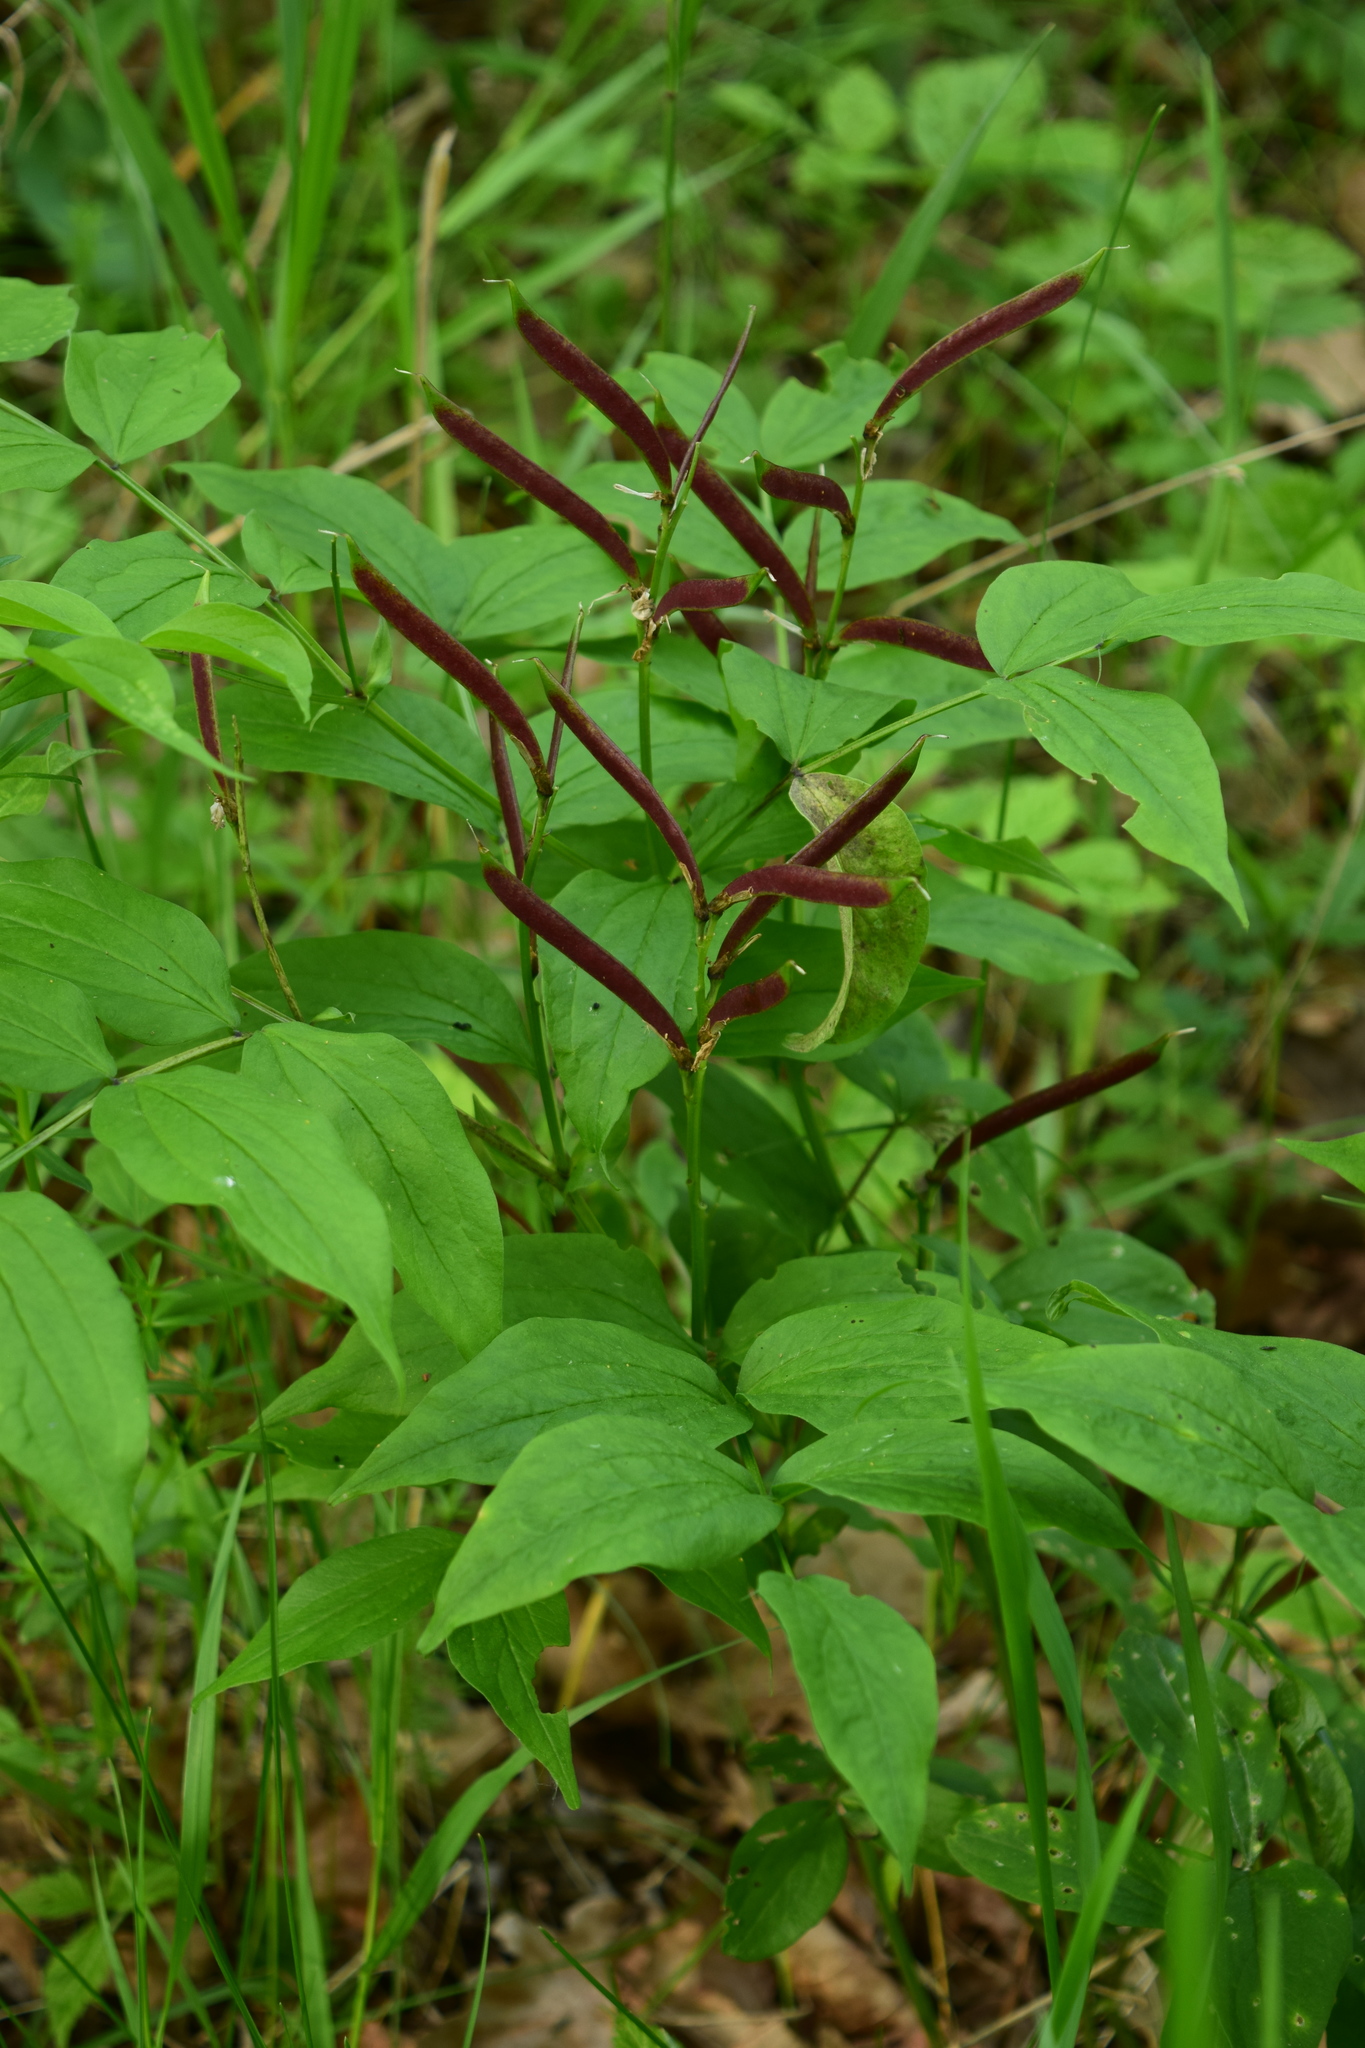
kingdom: Plantae
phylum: Tracheophyta
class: Magnoliopsida
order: Fabales
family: Fabaceae
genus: Lathyrus
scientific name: Lathyrus vernus
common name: Spring pea
